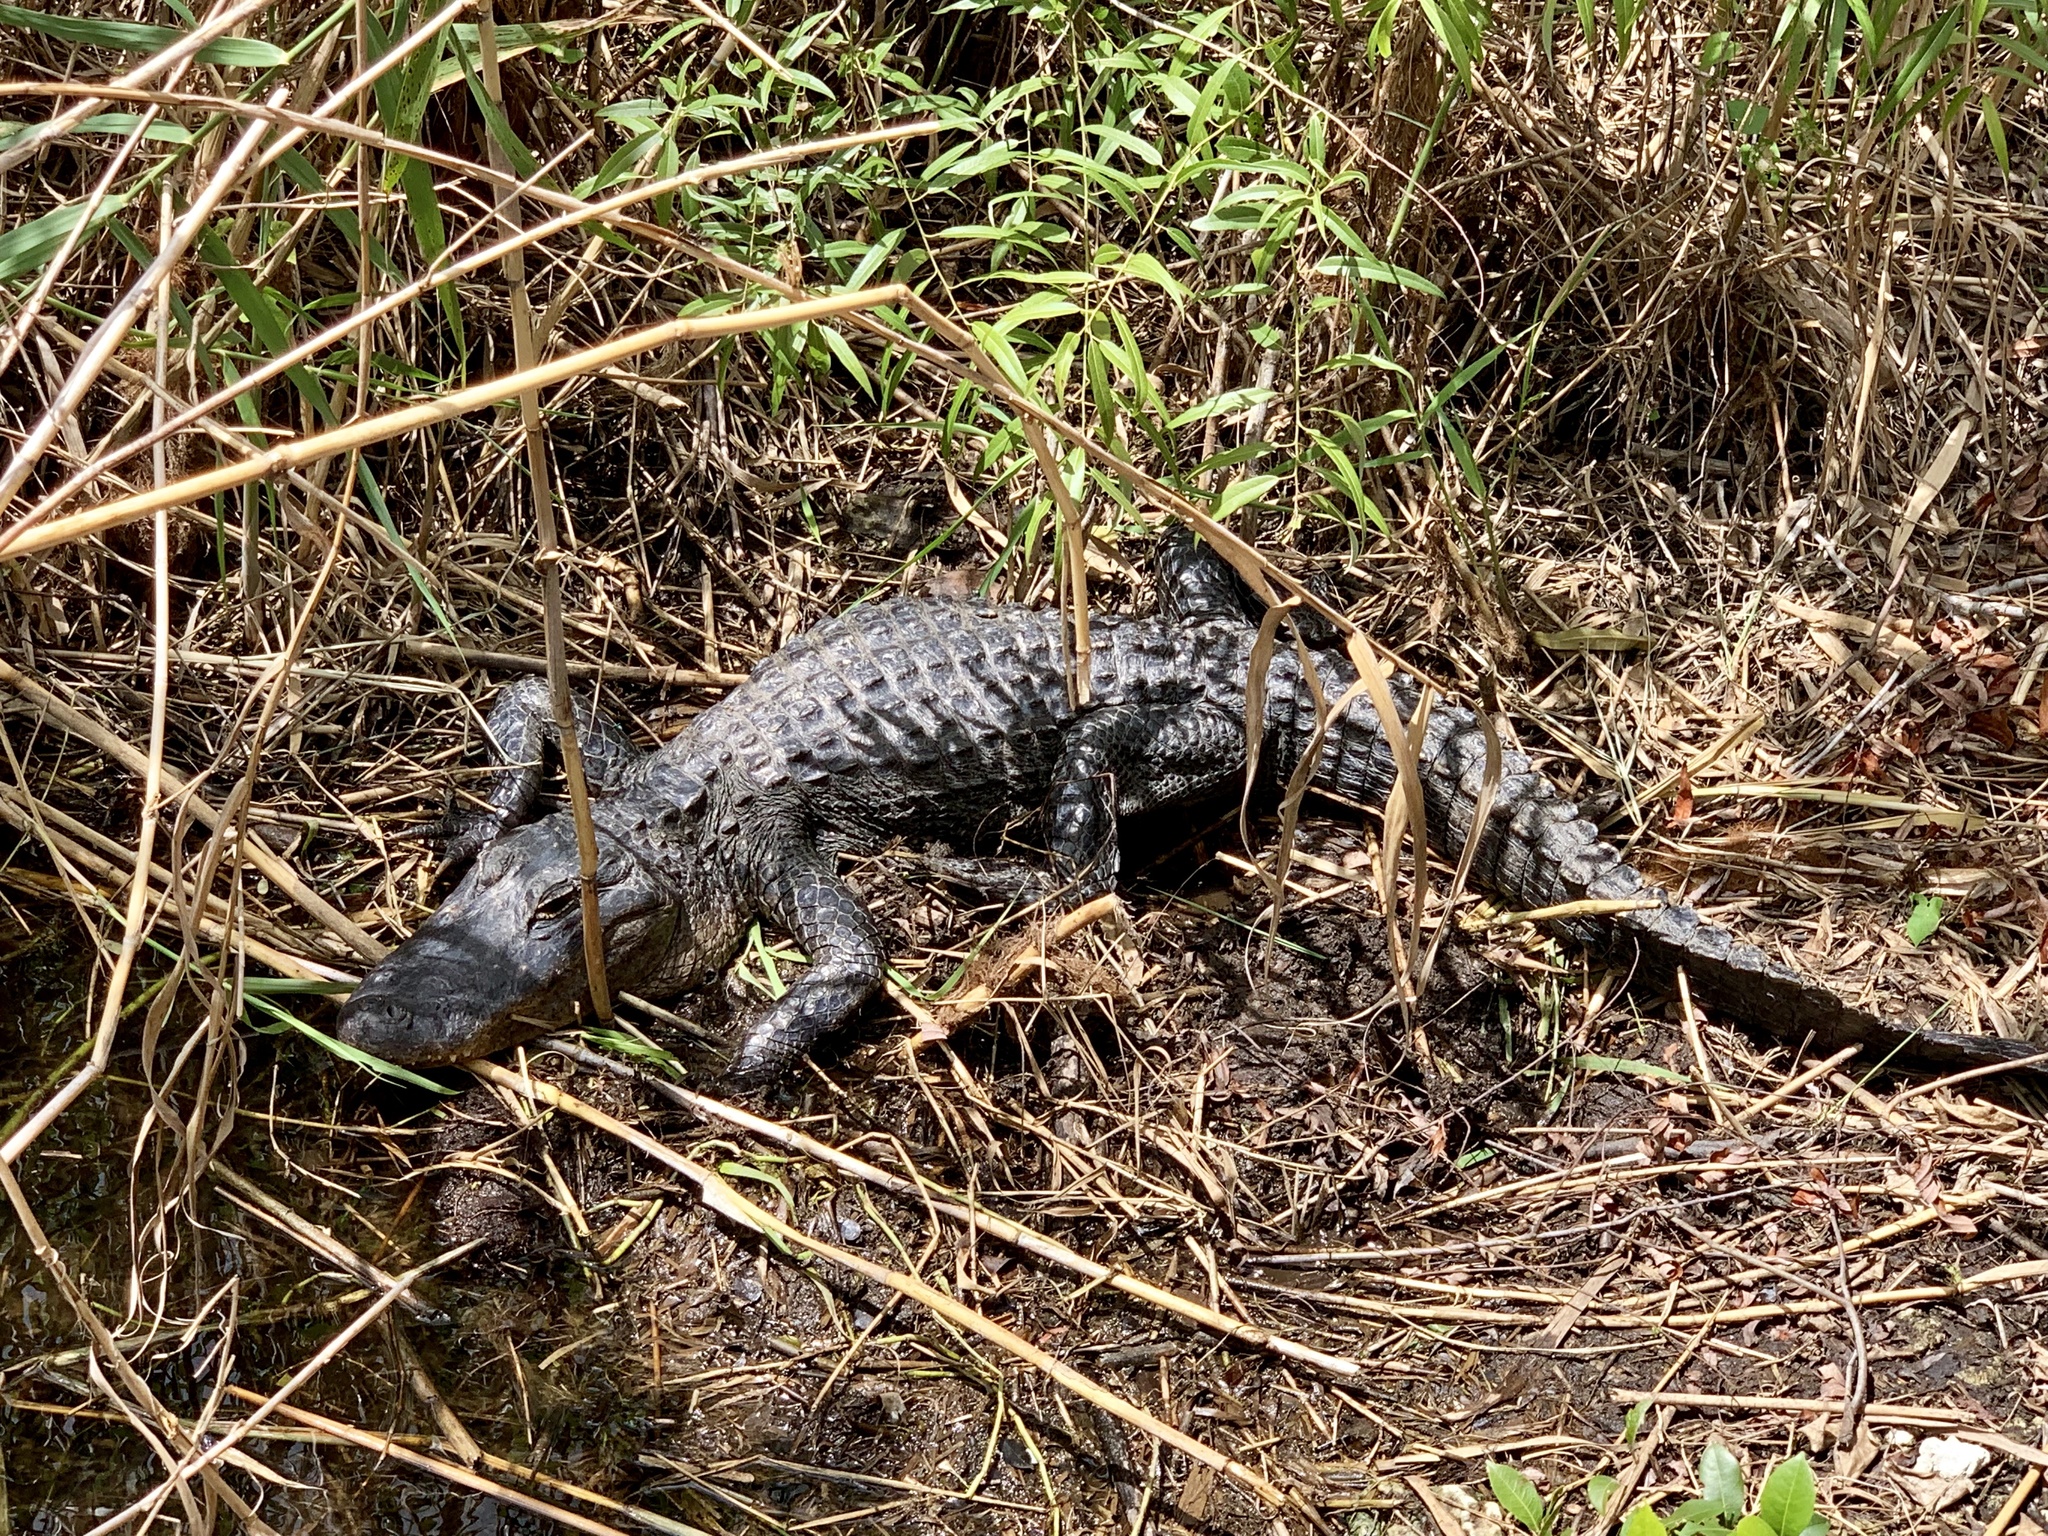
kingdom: Animalia
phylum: Chordata
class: Crocodylia
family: Alligatoridae
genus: Alligator
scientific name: Alligator mississippiensis
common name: American alligator
